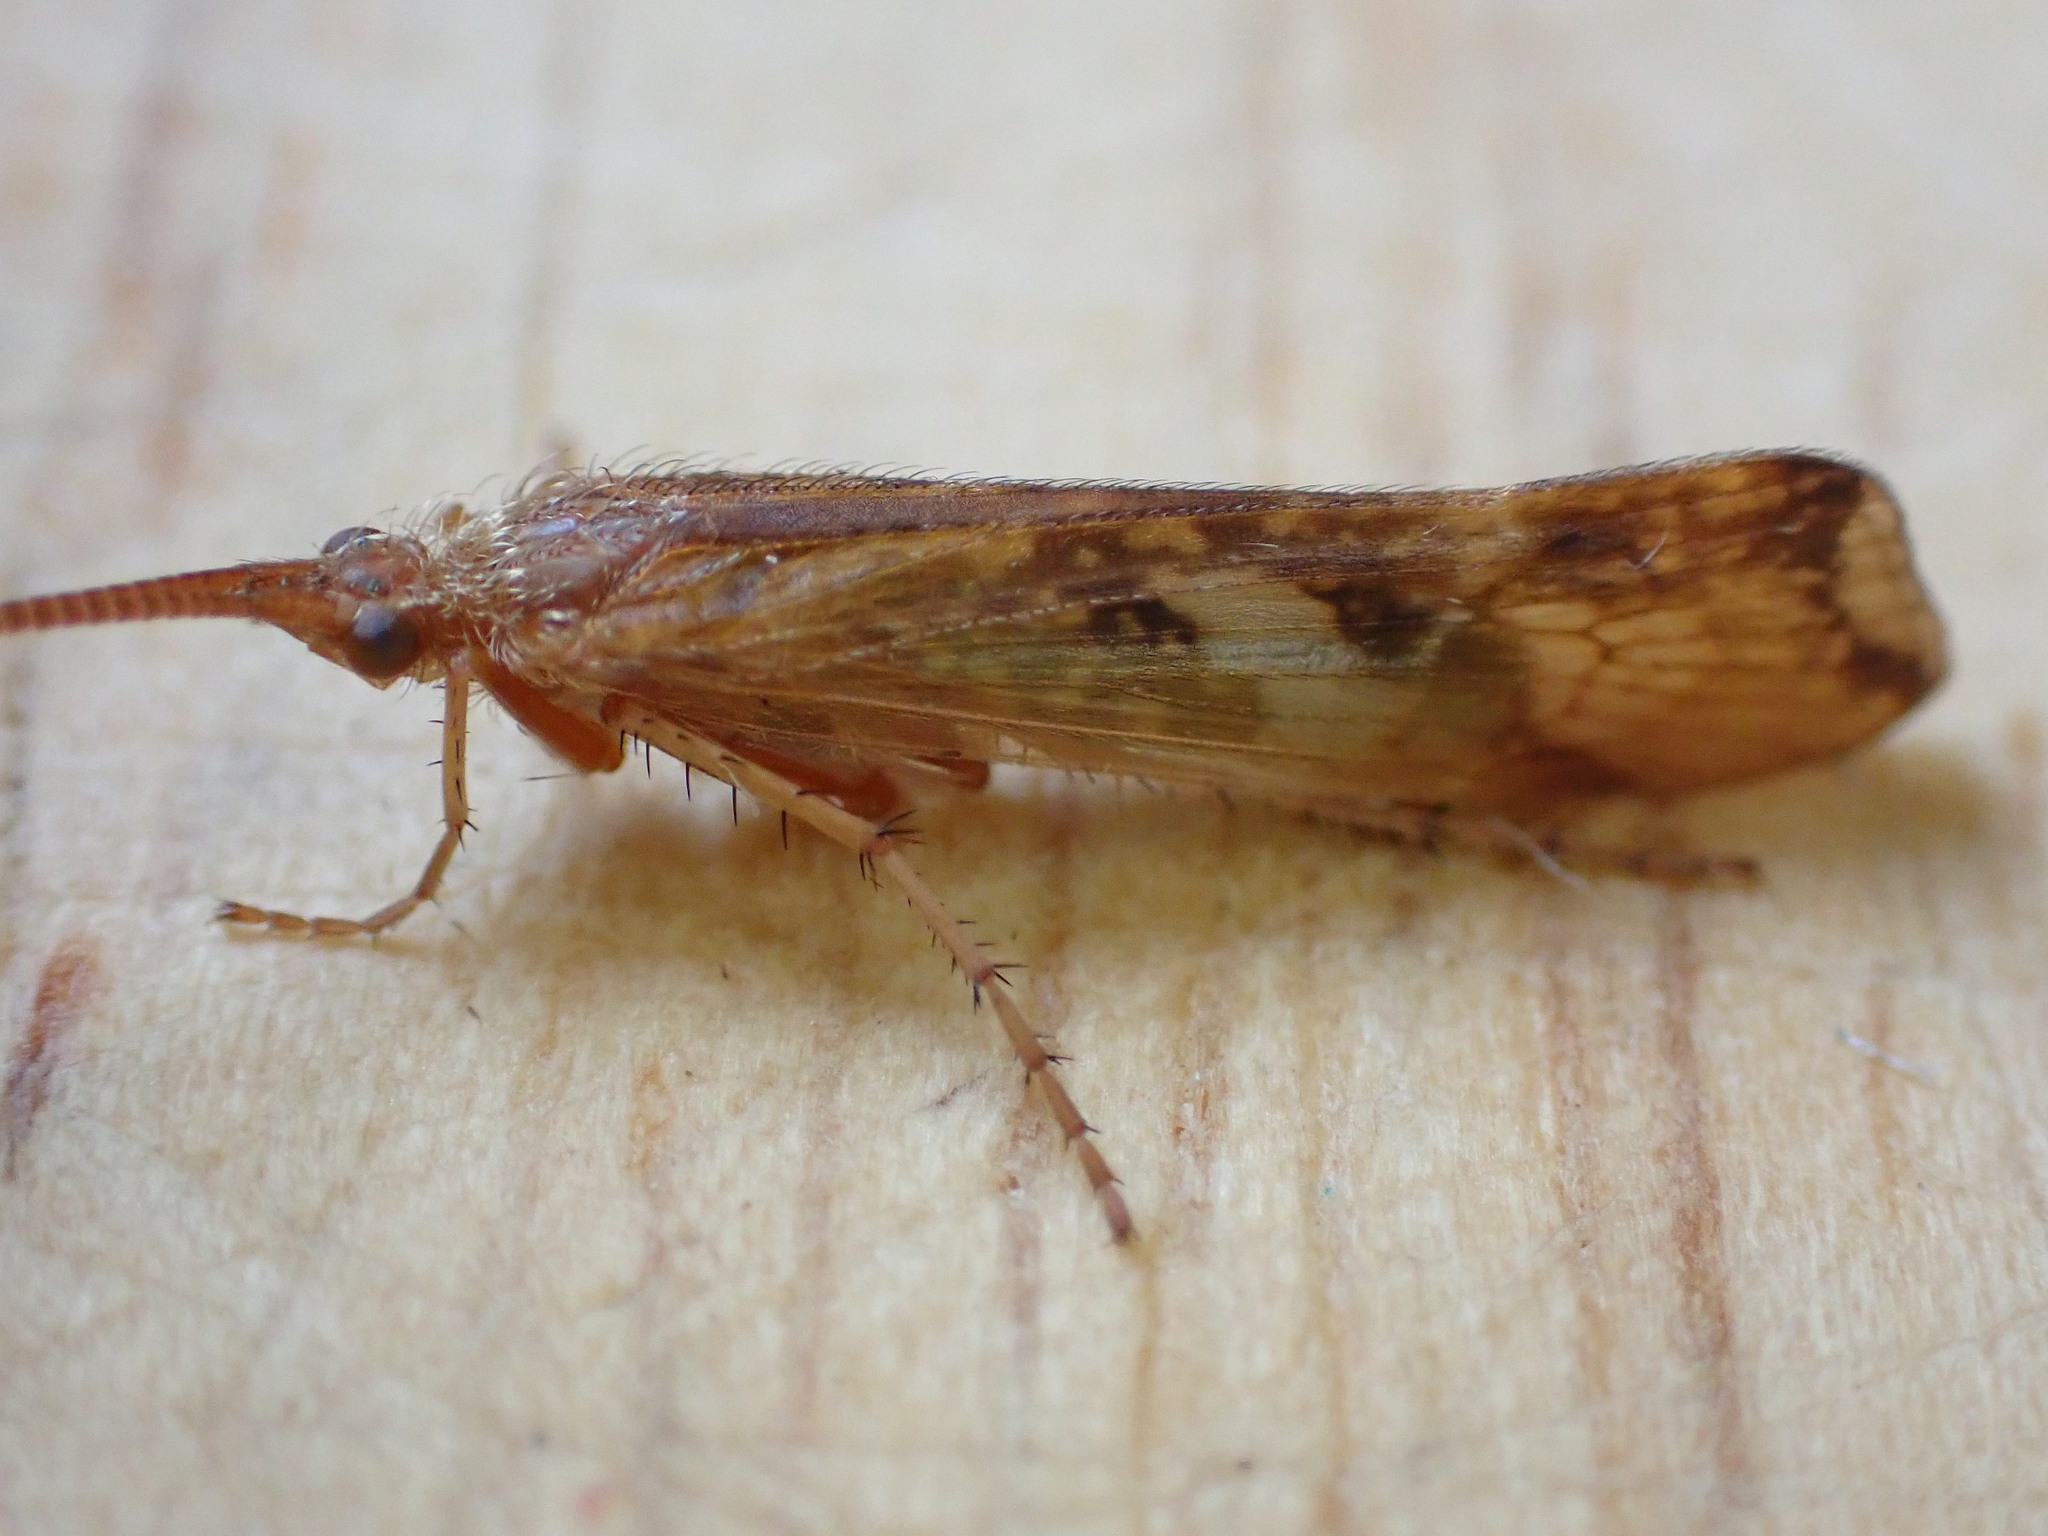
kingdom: Animalia
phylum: Arthropoda
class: Insecta
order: Trichoptera
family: Limnephilidae
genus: Limnephilus
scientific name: Limnephilus lunatus
